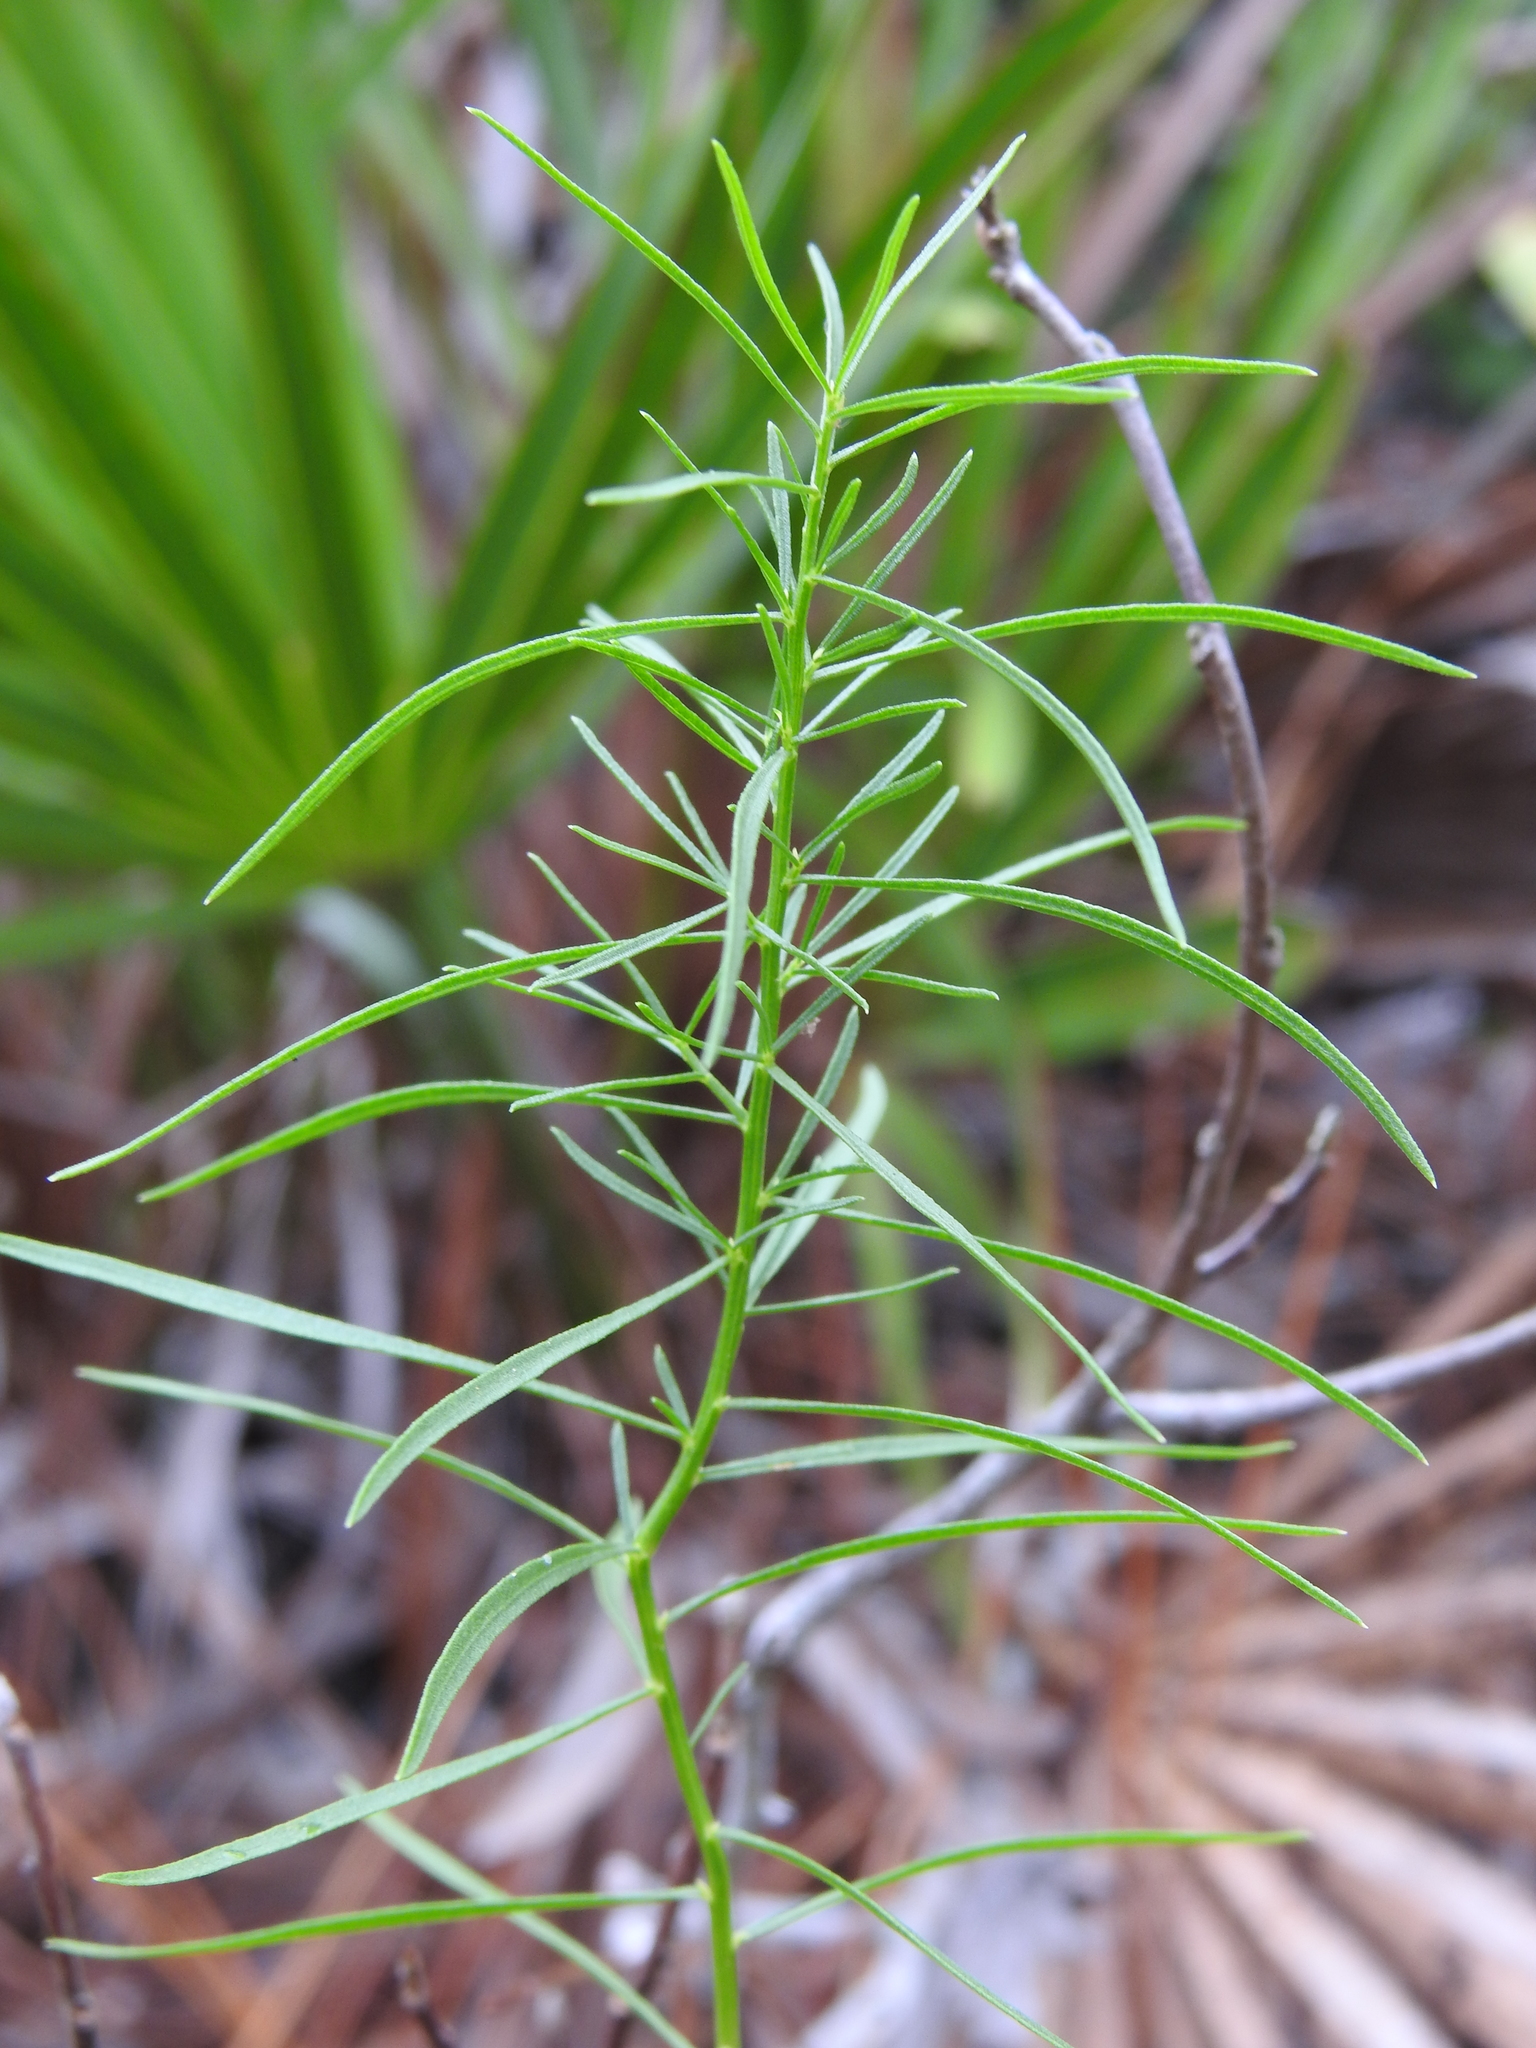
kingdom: Plantae
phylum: Tracheophyta
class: Magnoliopsida
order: Asterales
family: Asteraceae
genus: Euthamia
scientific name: Euthamia caroliniana
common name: Coastal plain goldentop
